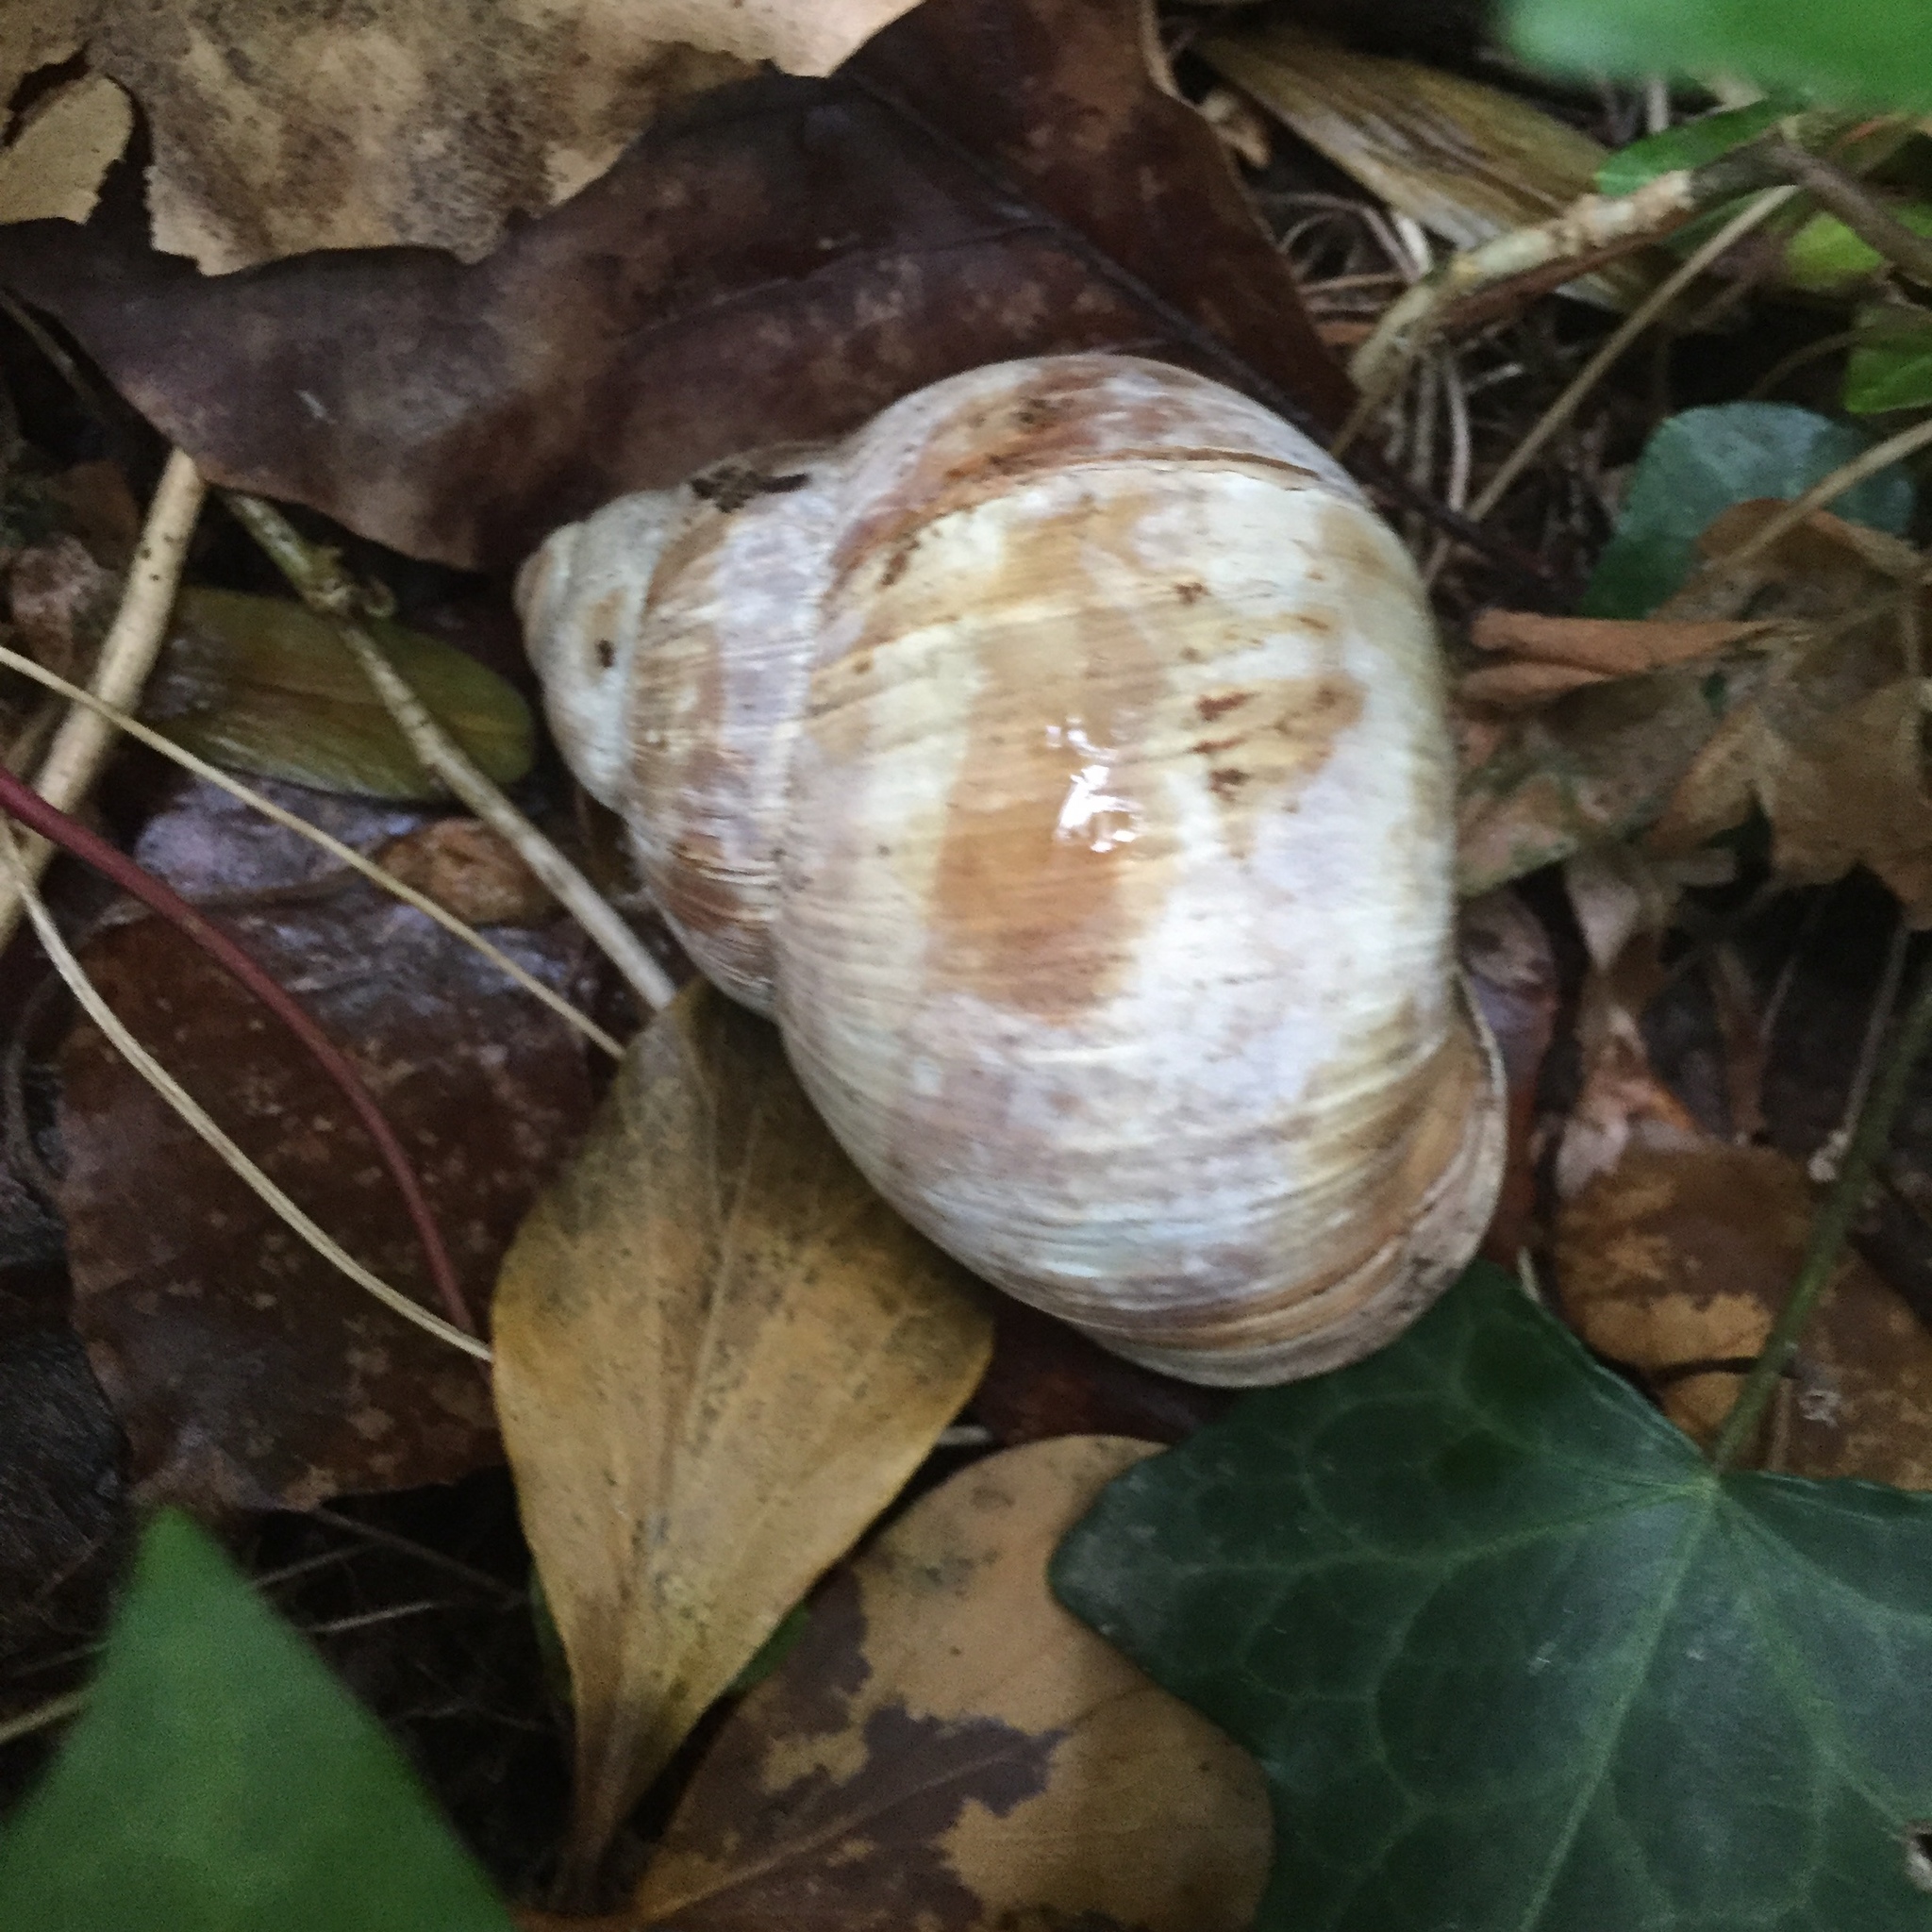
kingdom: Animalia
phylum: Mollusca
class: Gastropoda
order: Stylommatophora
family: Helicidae
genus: Helix
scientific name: Helix pomatia
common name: Roman snail
